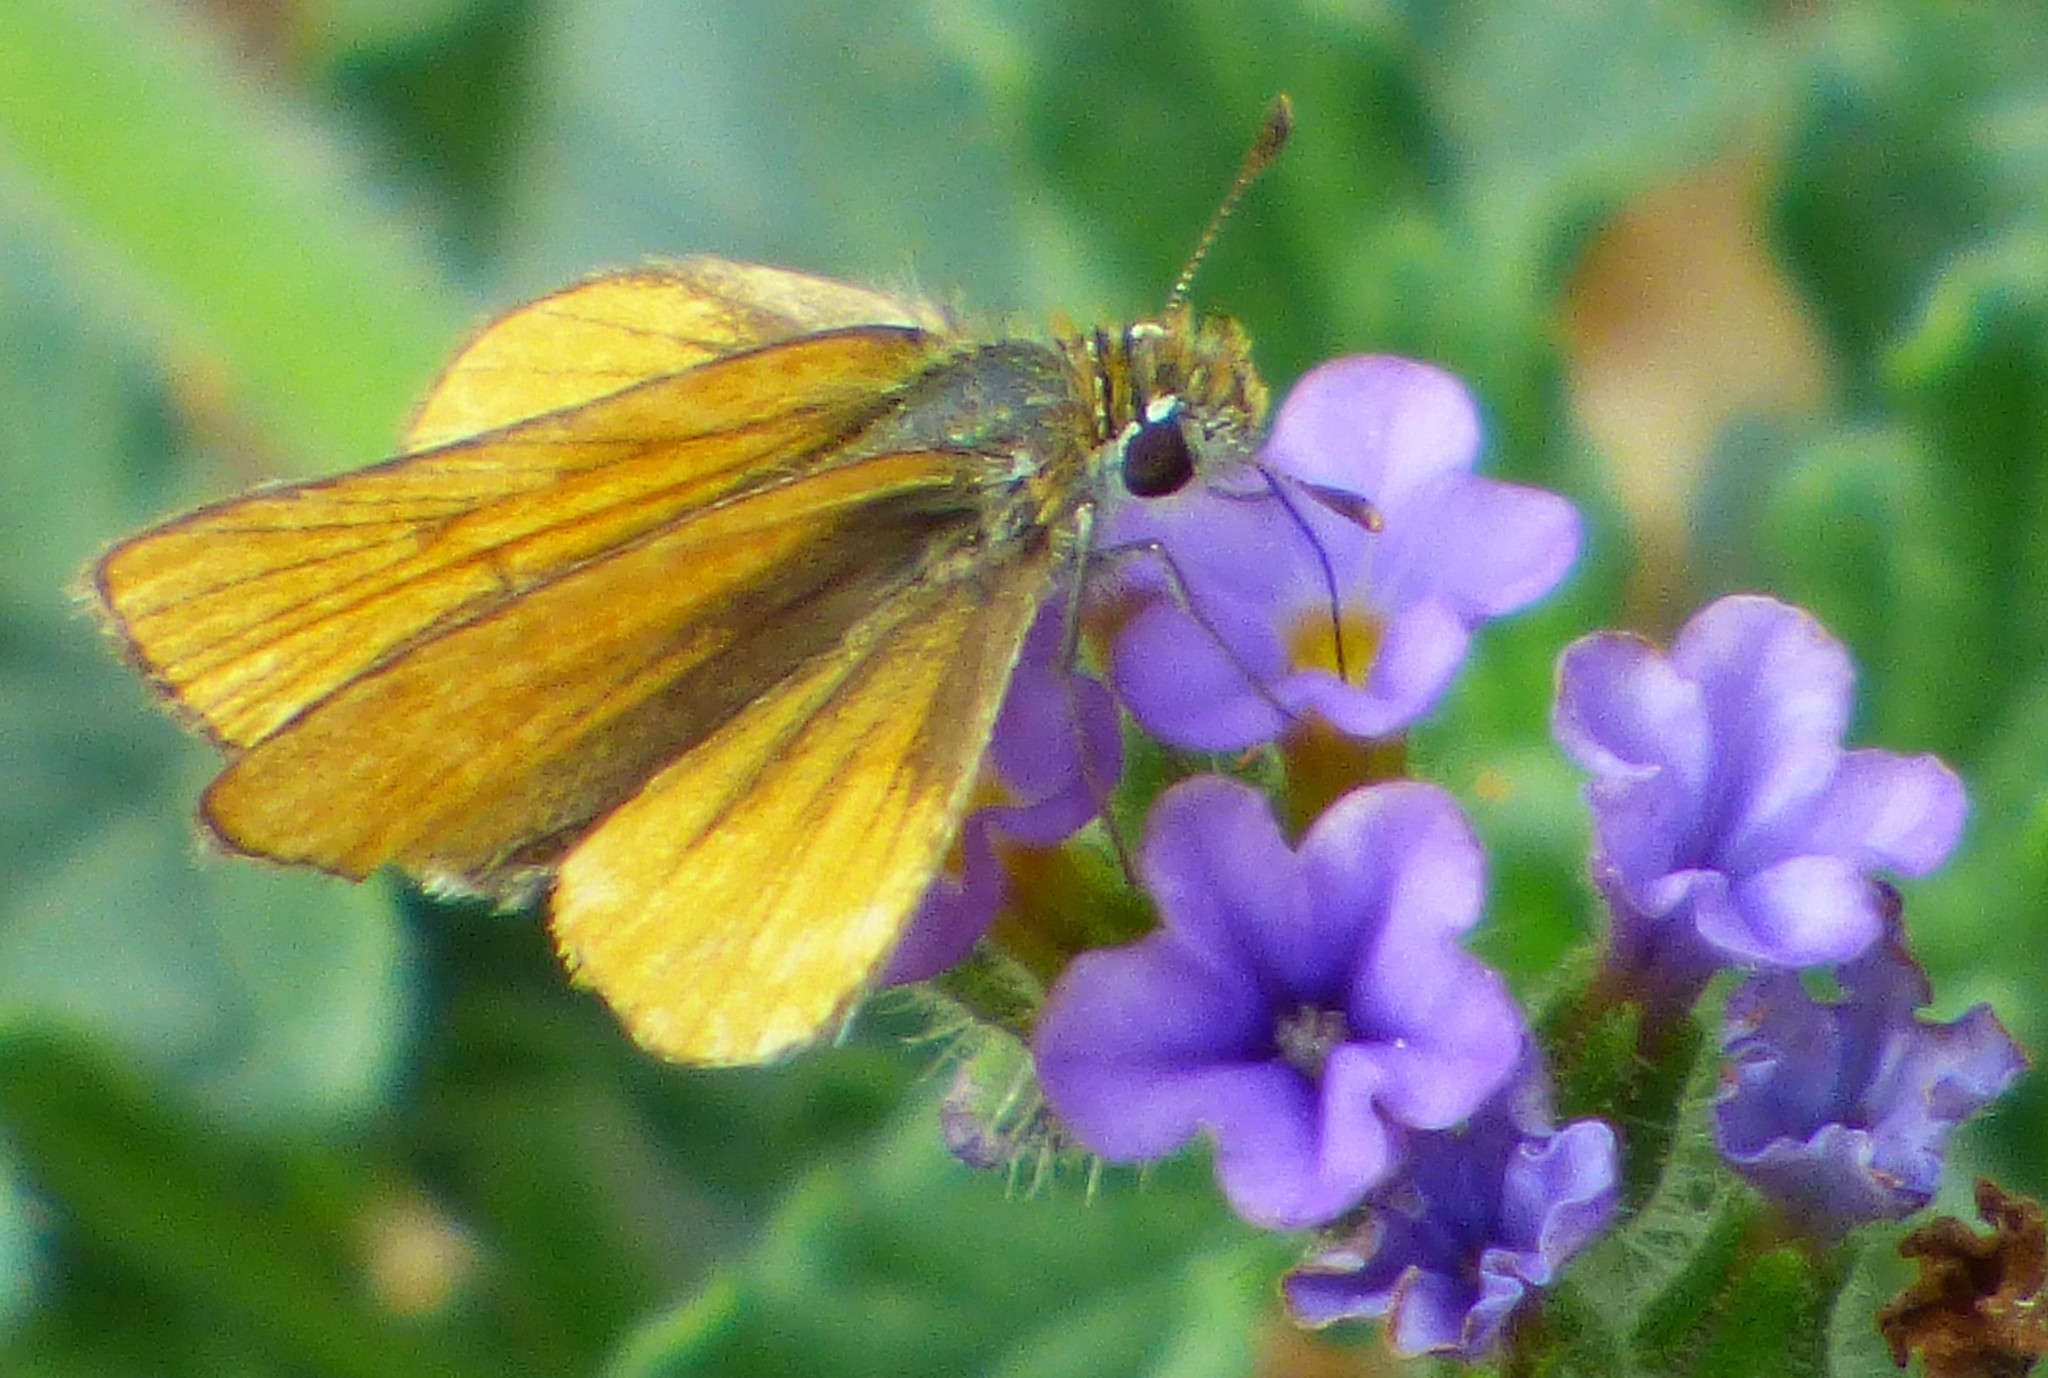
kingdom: Animalia
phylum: Arthropoda
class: Insecta
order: Lepidoptera
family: Hesperiidae
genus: Copaeodes
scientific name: Copaeodes minima
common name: Southern skipperling
